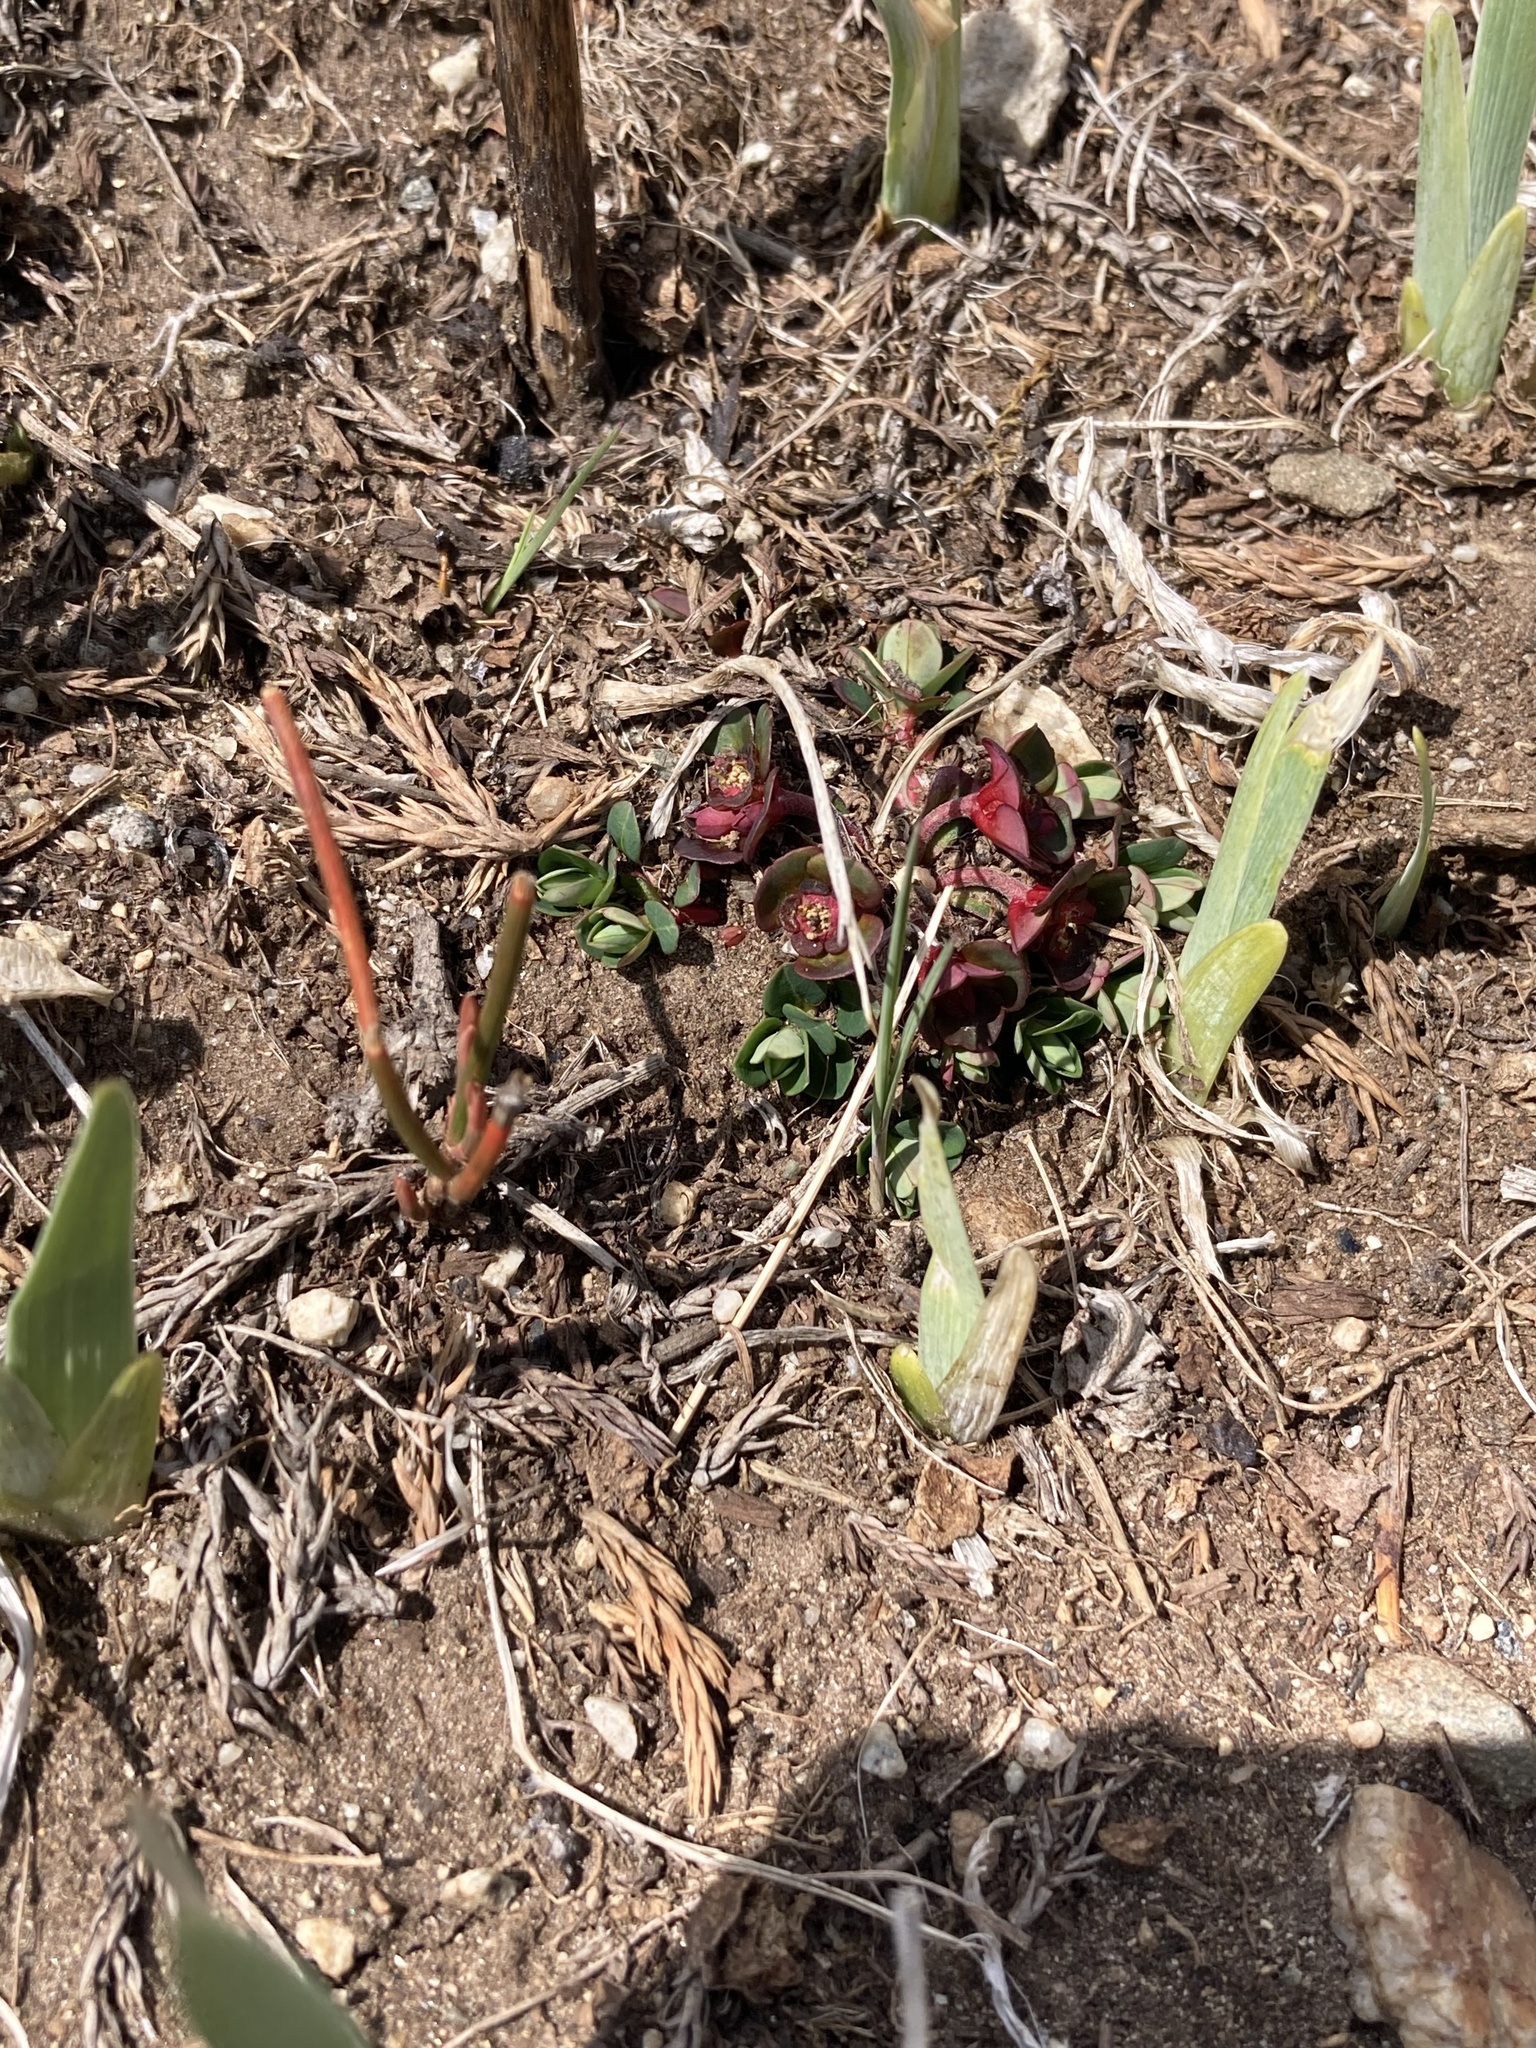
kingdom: Plantae
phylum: Tracheophyta
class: Magnoliopsida
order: Malpighiales
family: Euphorbiaceae
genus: Euphorbia
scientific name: Euphorbia stracheyi
